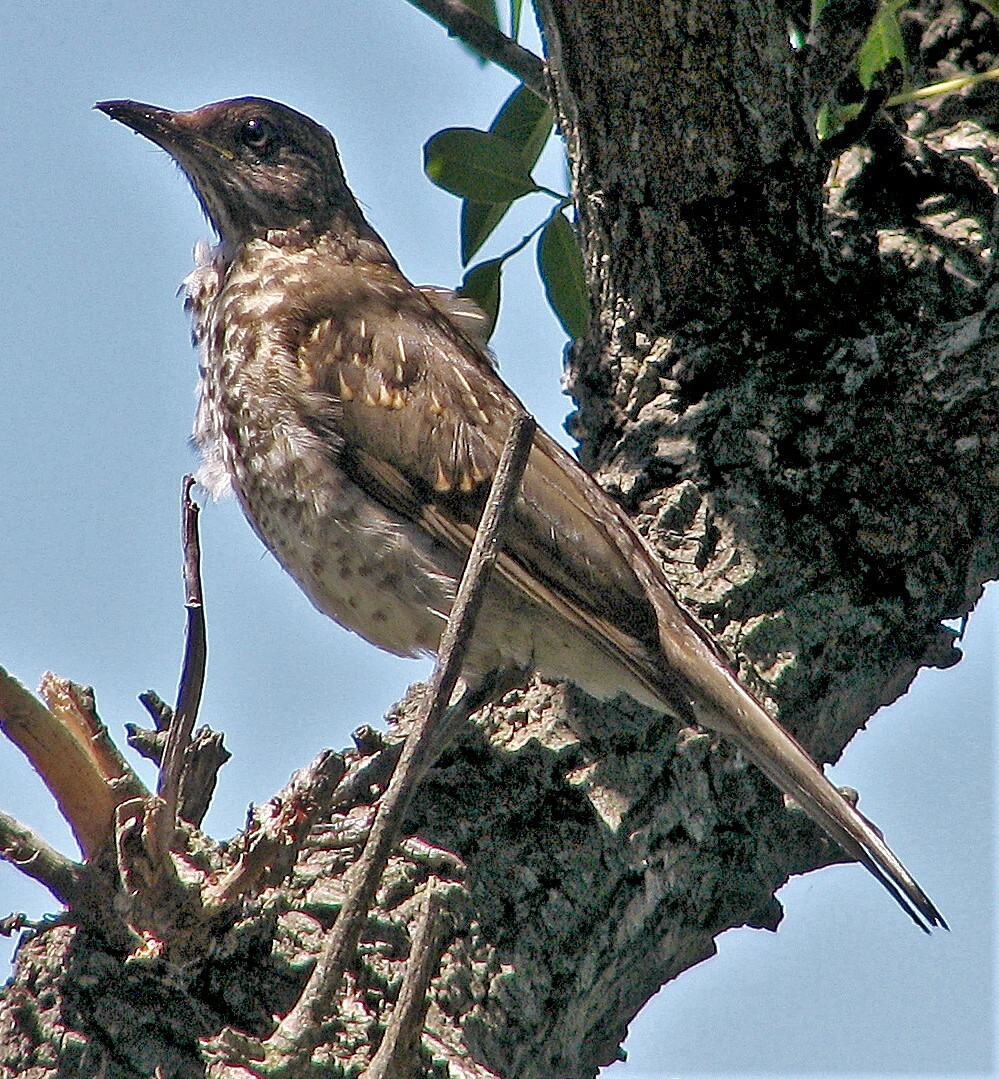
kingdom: Animalia
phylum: Chordata
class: Aves
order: Passeriformes
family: Turdidae
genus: Turdus
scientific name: Turdus amaurochalinus
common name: Creamy-bellied thrush
